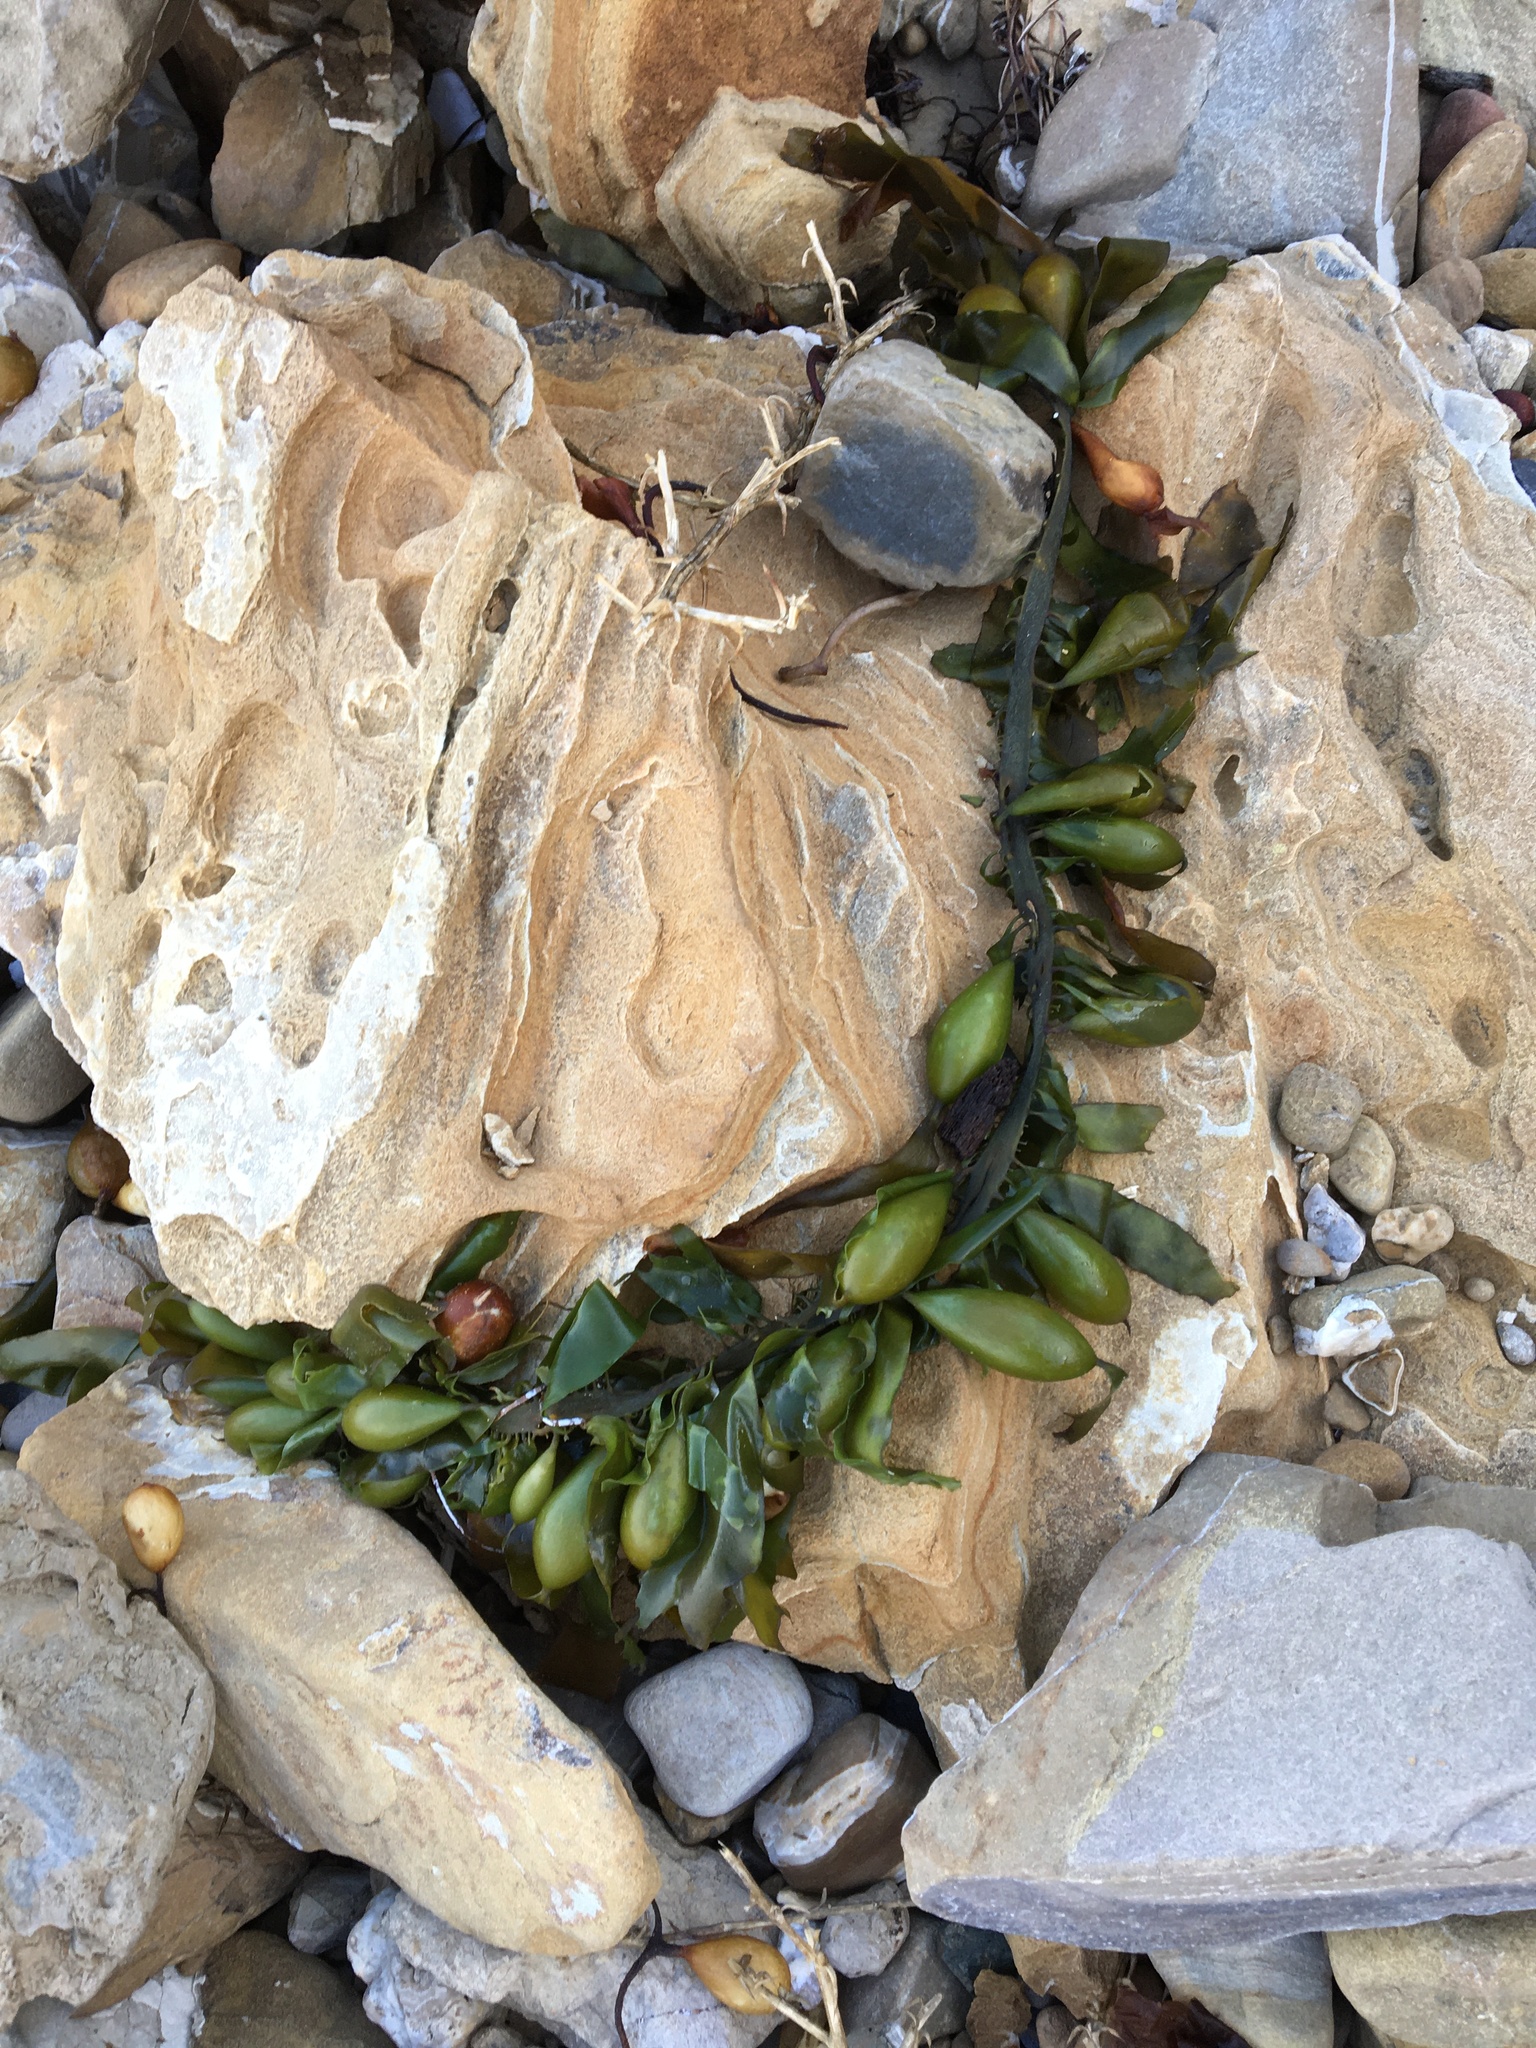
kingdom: Chromista
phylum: Ochrophyta
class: Phaeophyceae
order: Laminariales
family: Lessoniaceae
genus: Egregia
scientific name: Egregia menziesii
